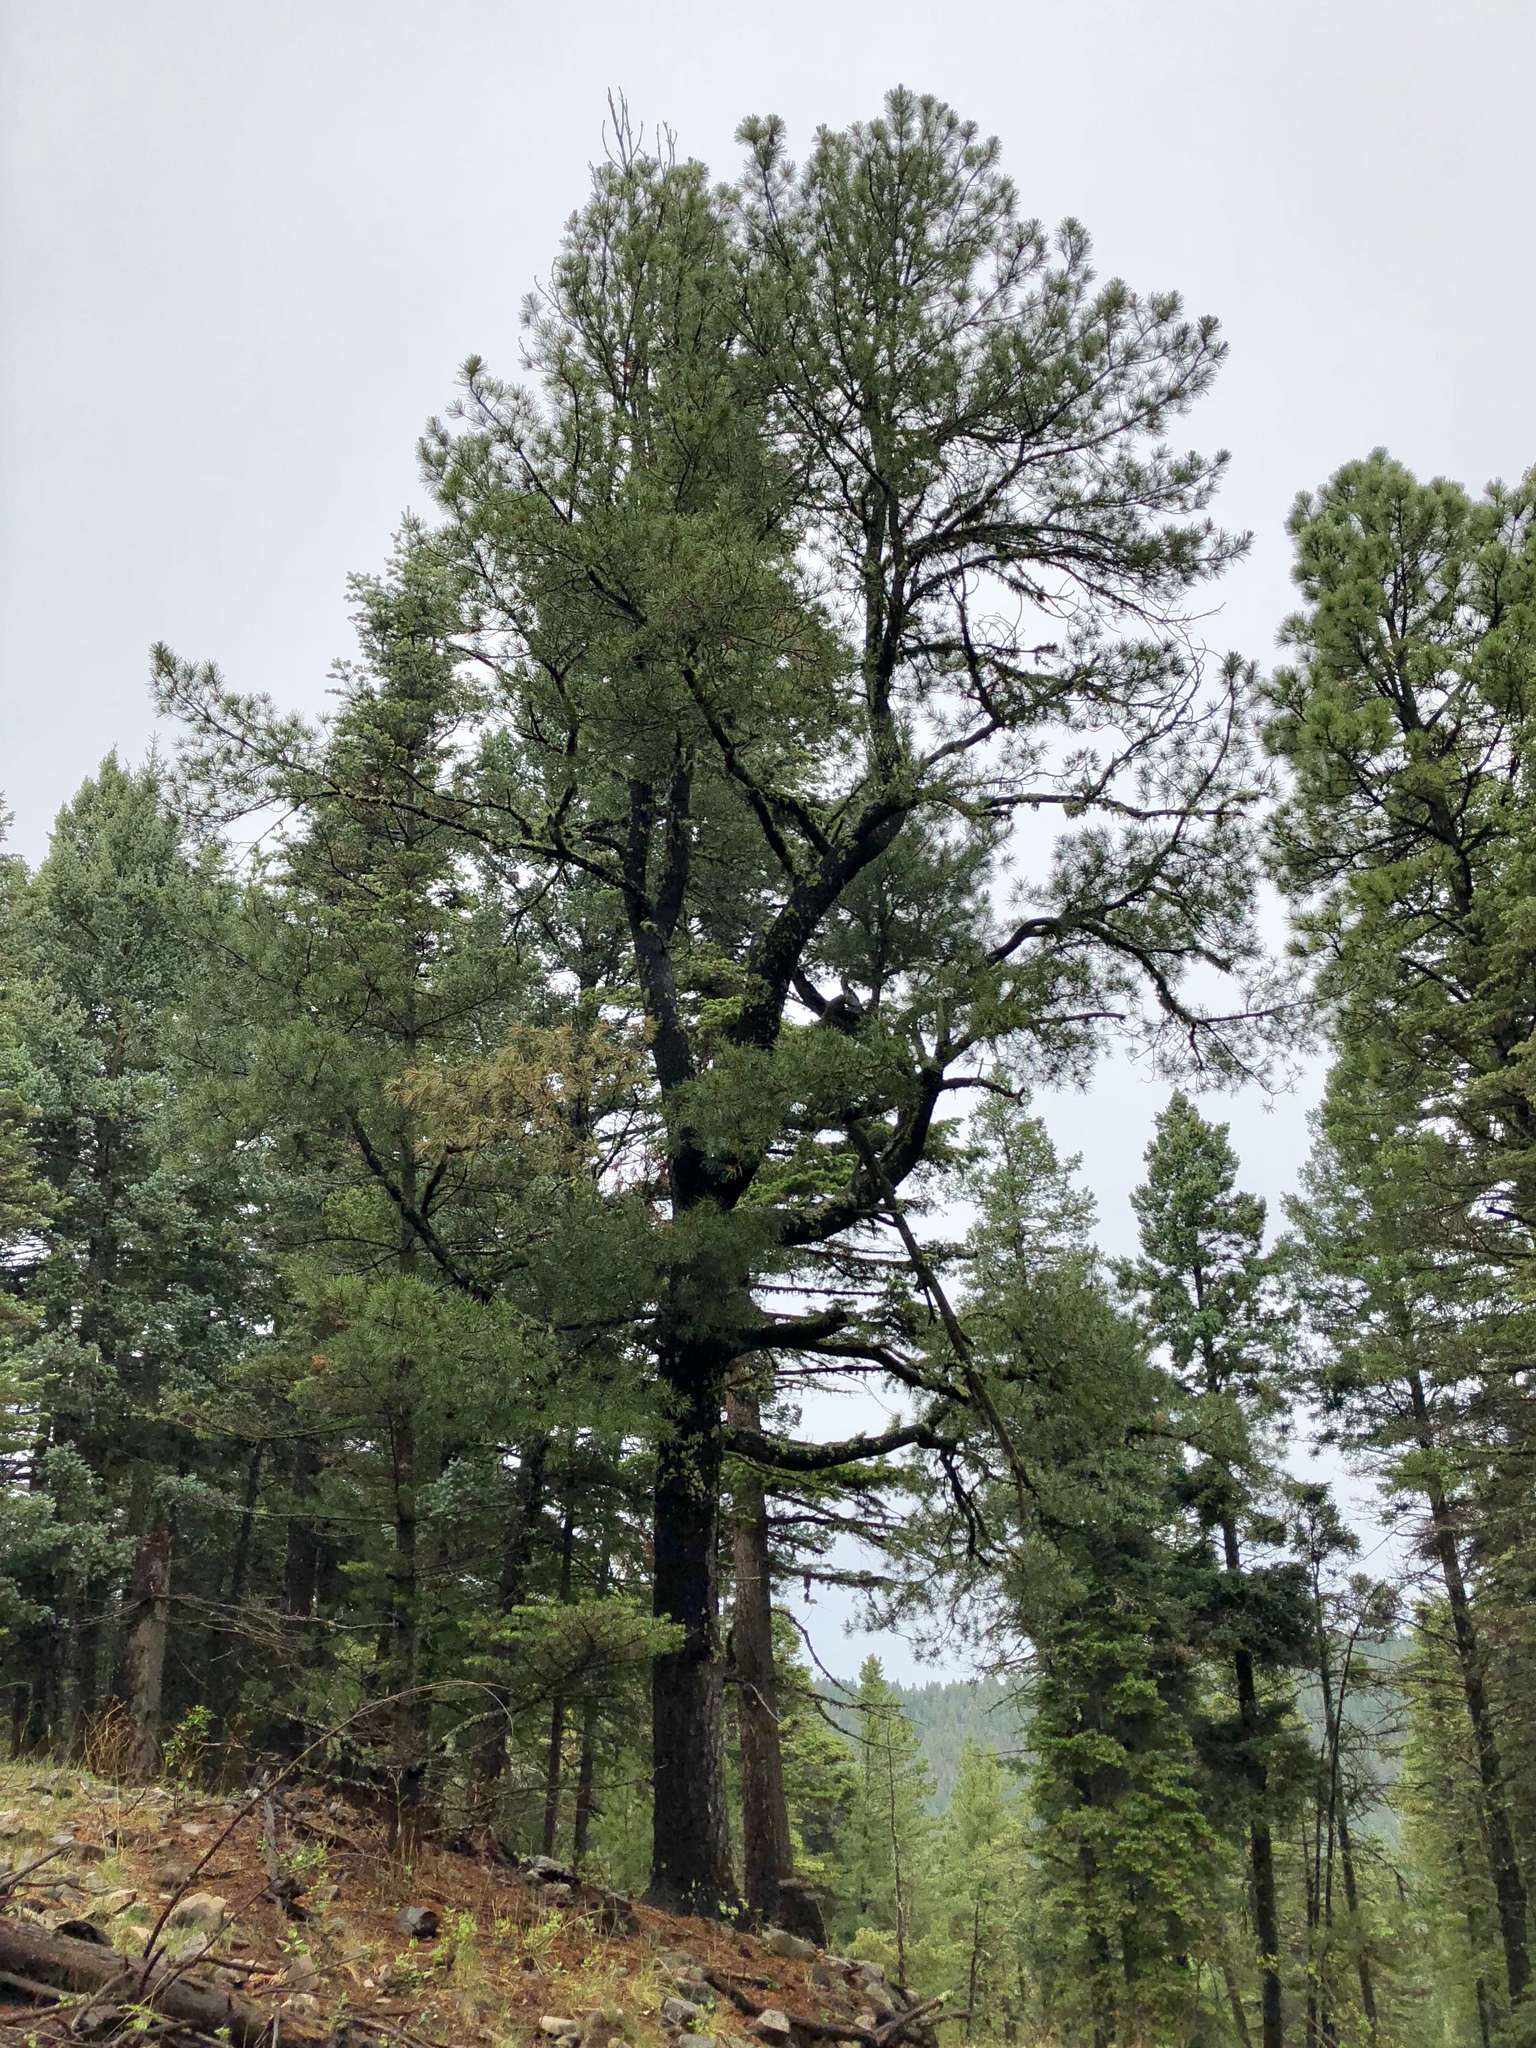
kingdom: Plantae
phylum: Tracheophyta
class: Pinopsida
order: Pinales
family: Pinaceae
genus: Pinus
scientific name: Pinus strobiformis
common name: Southwestern white pine
